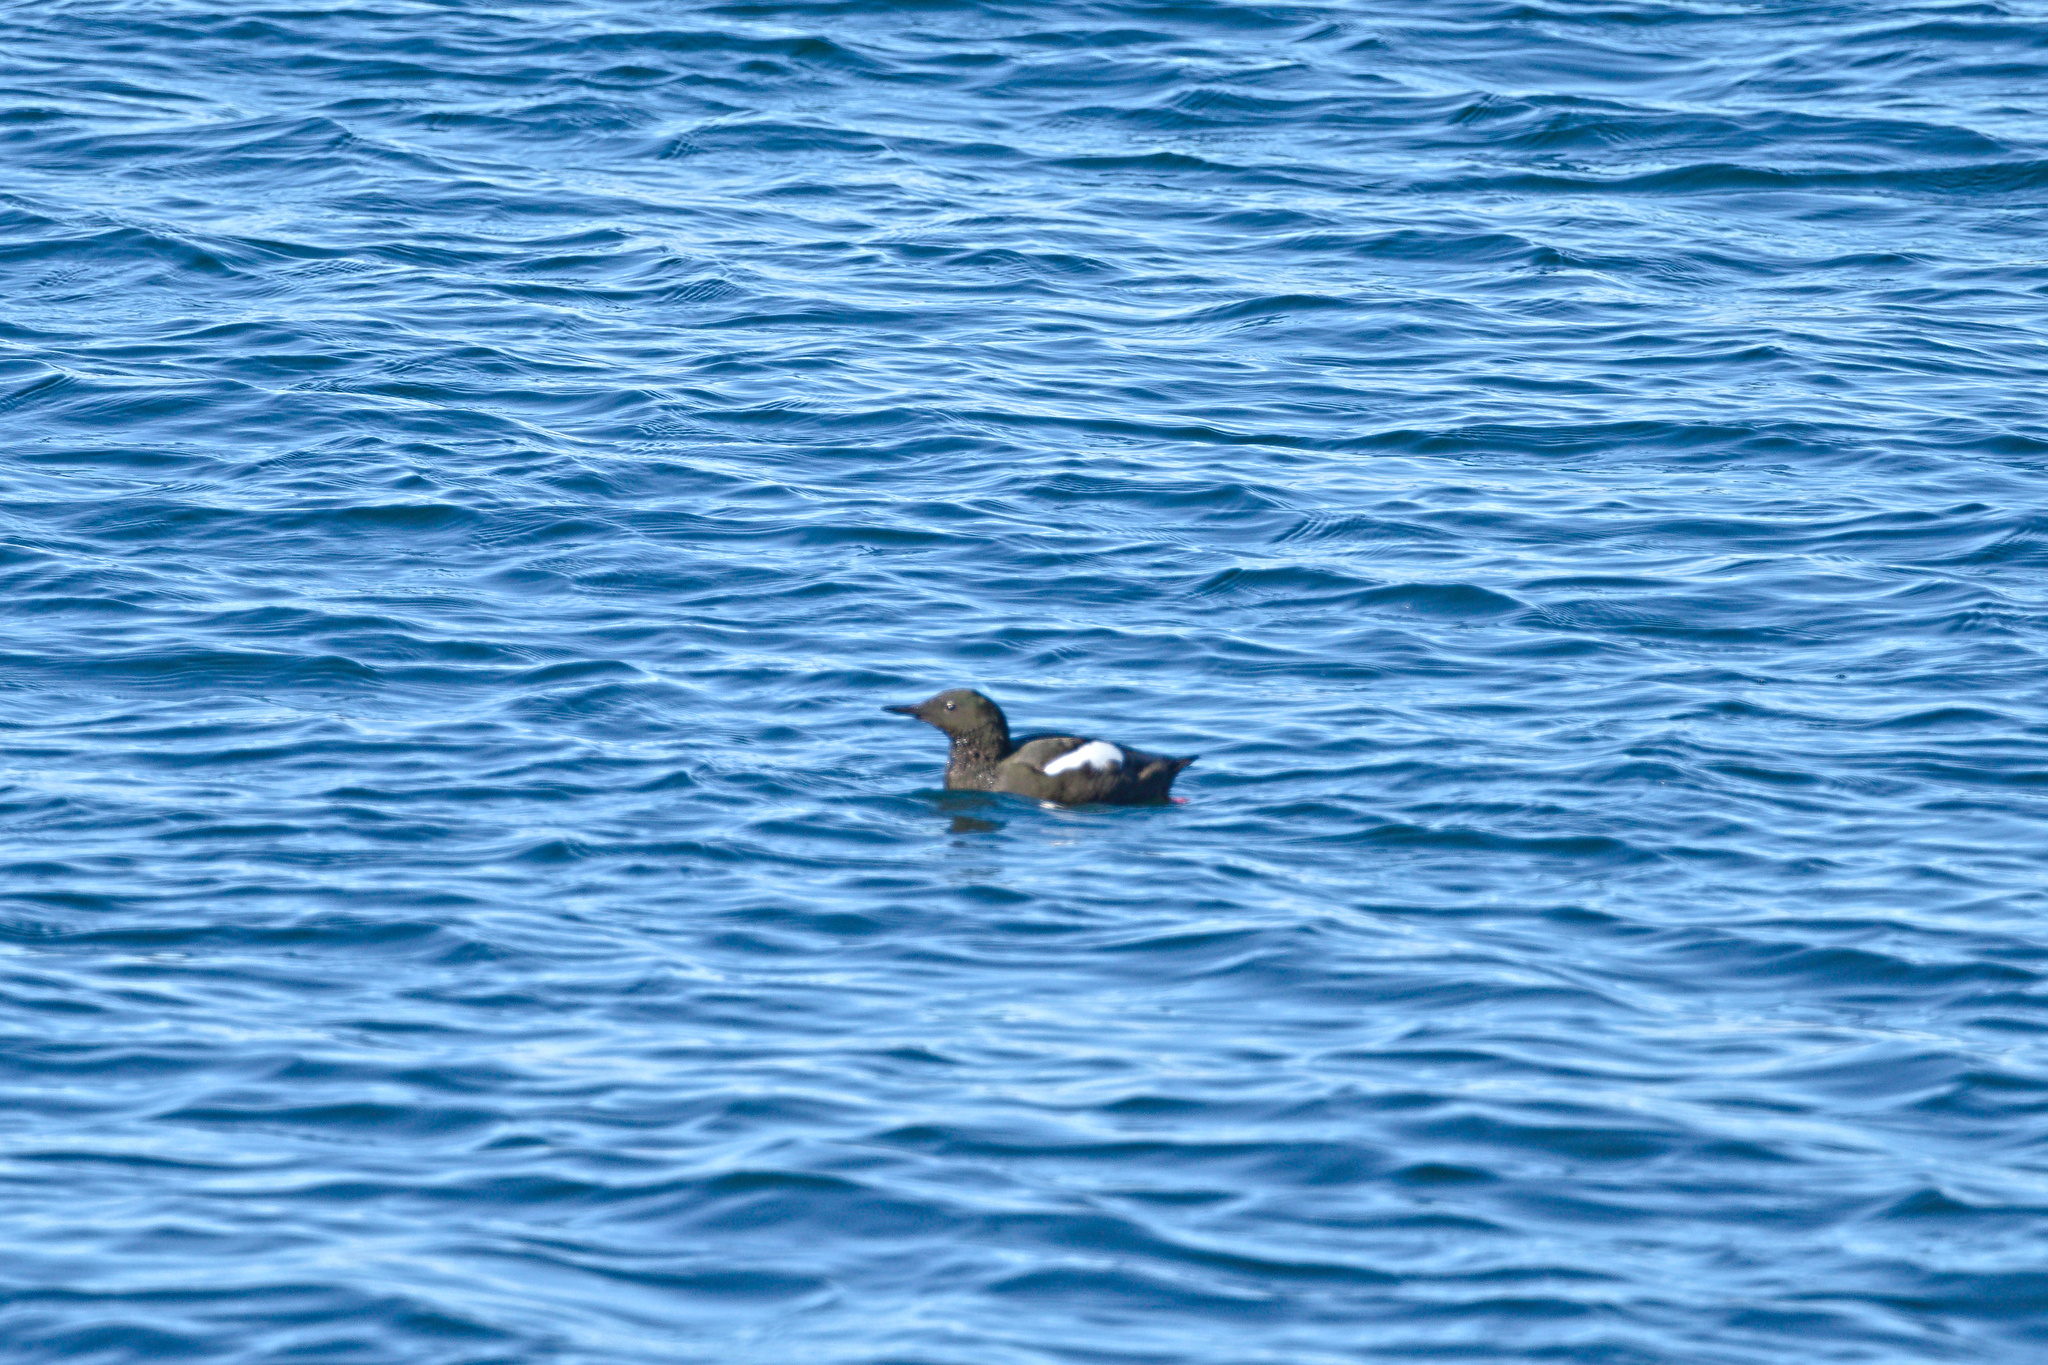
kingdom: Animalia
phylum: Chordata
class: Aves
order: Charadriiformes
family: Alcidae
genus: Cepphus
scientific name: Cepphus grylle
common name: Black guillemot
